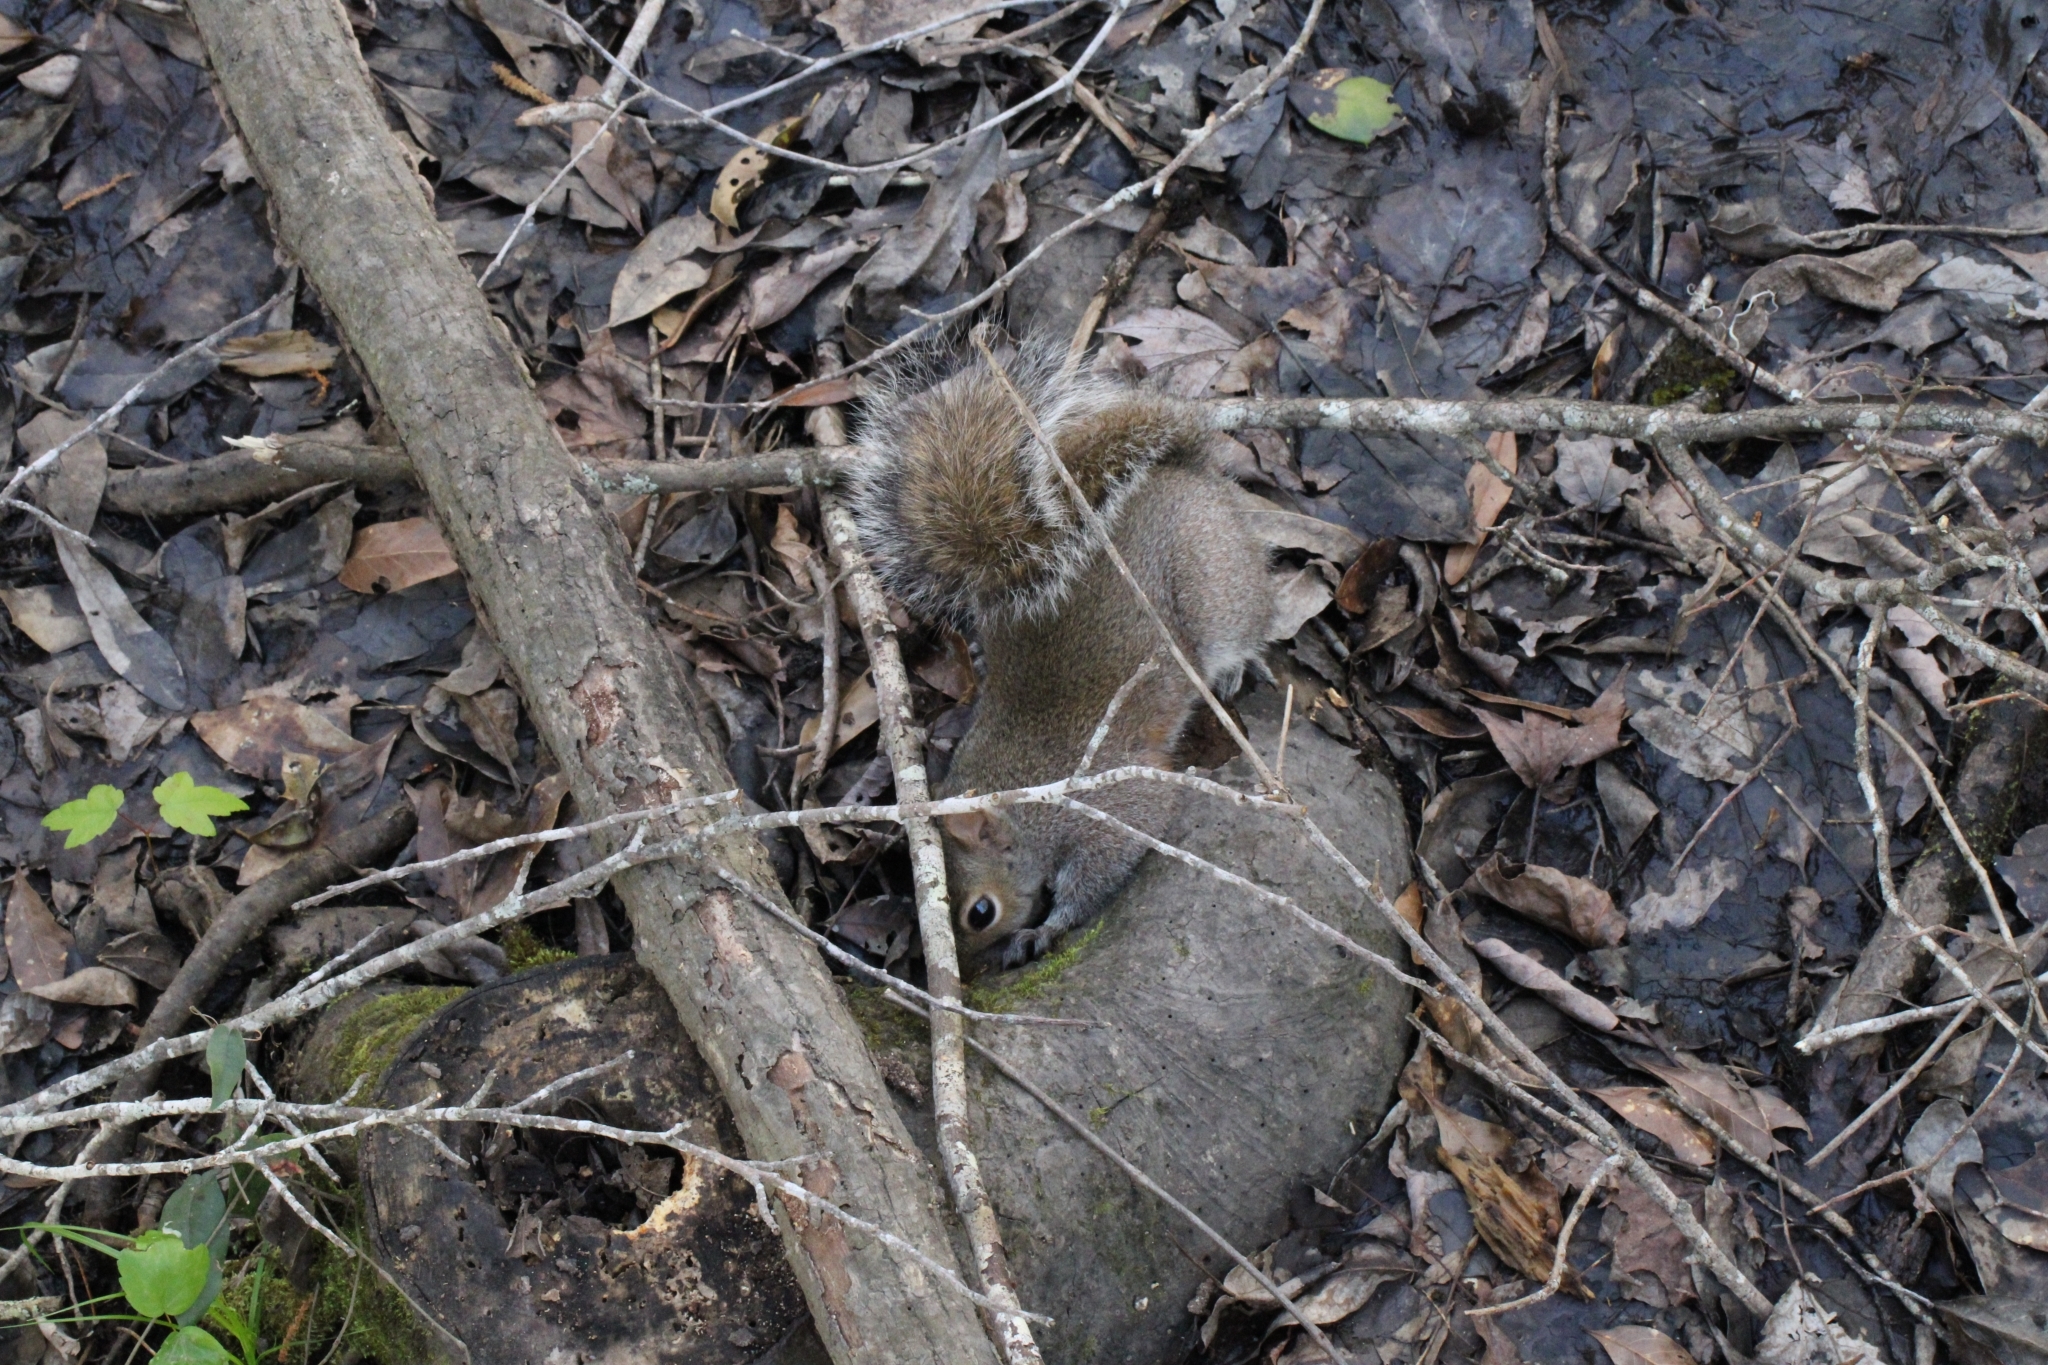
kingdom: Animalia
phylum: Chordata
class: Mammalia
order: Rodentia
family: Sciuridae
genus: Sciurus
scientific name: Sciurus carolinensis
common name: Eastern gray squirrel
